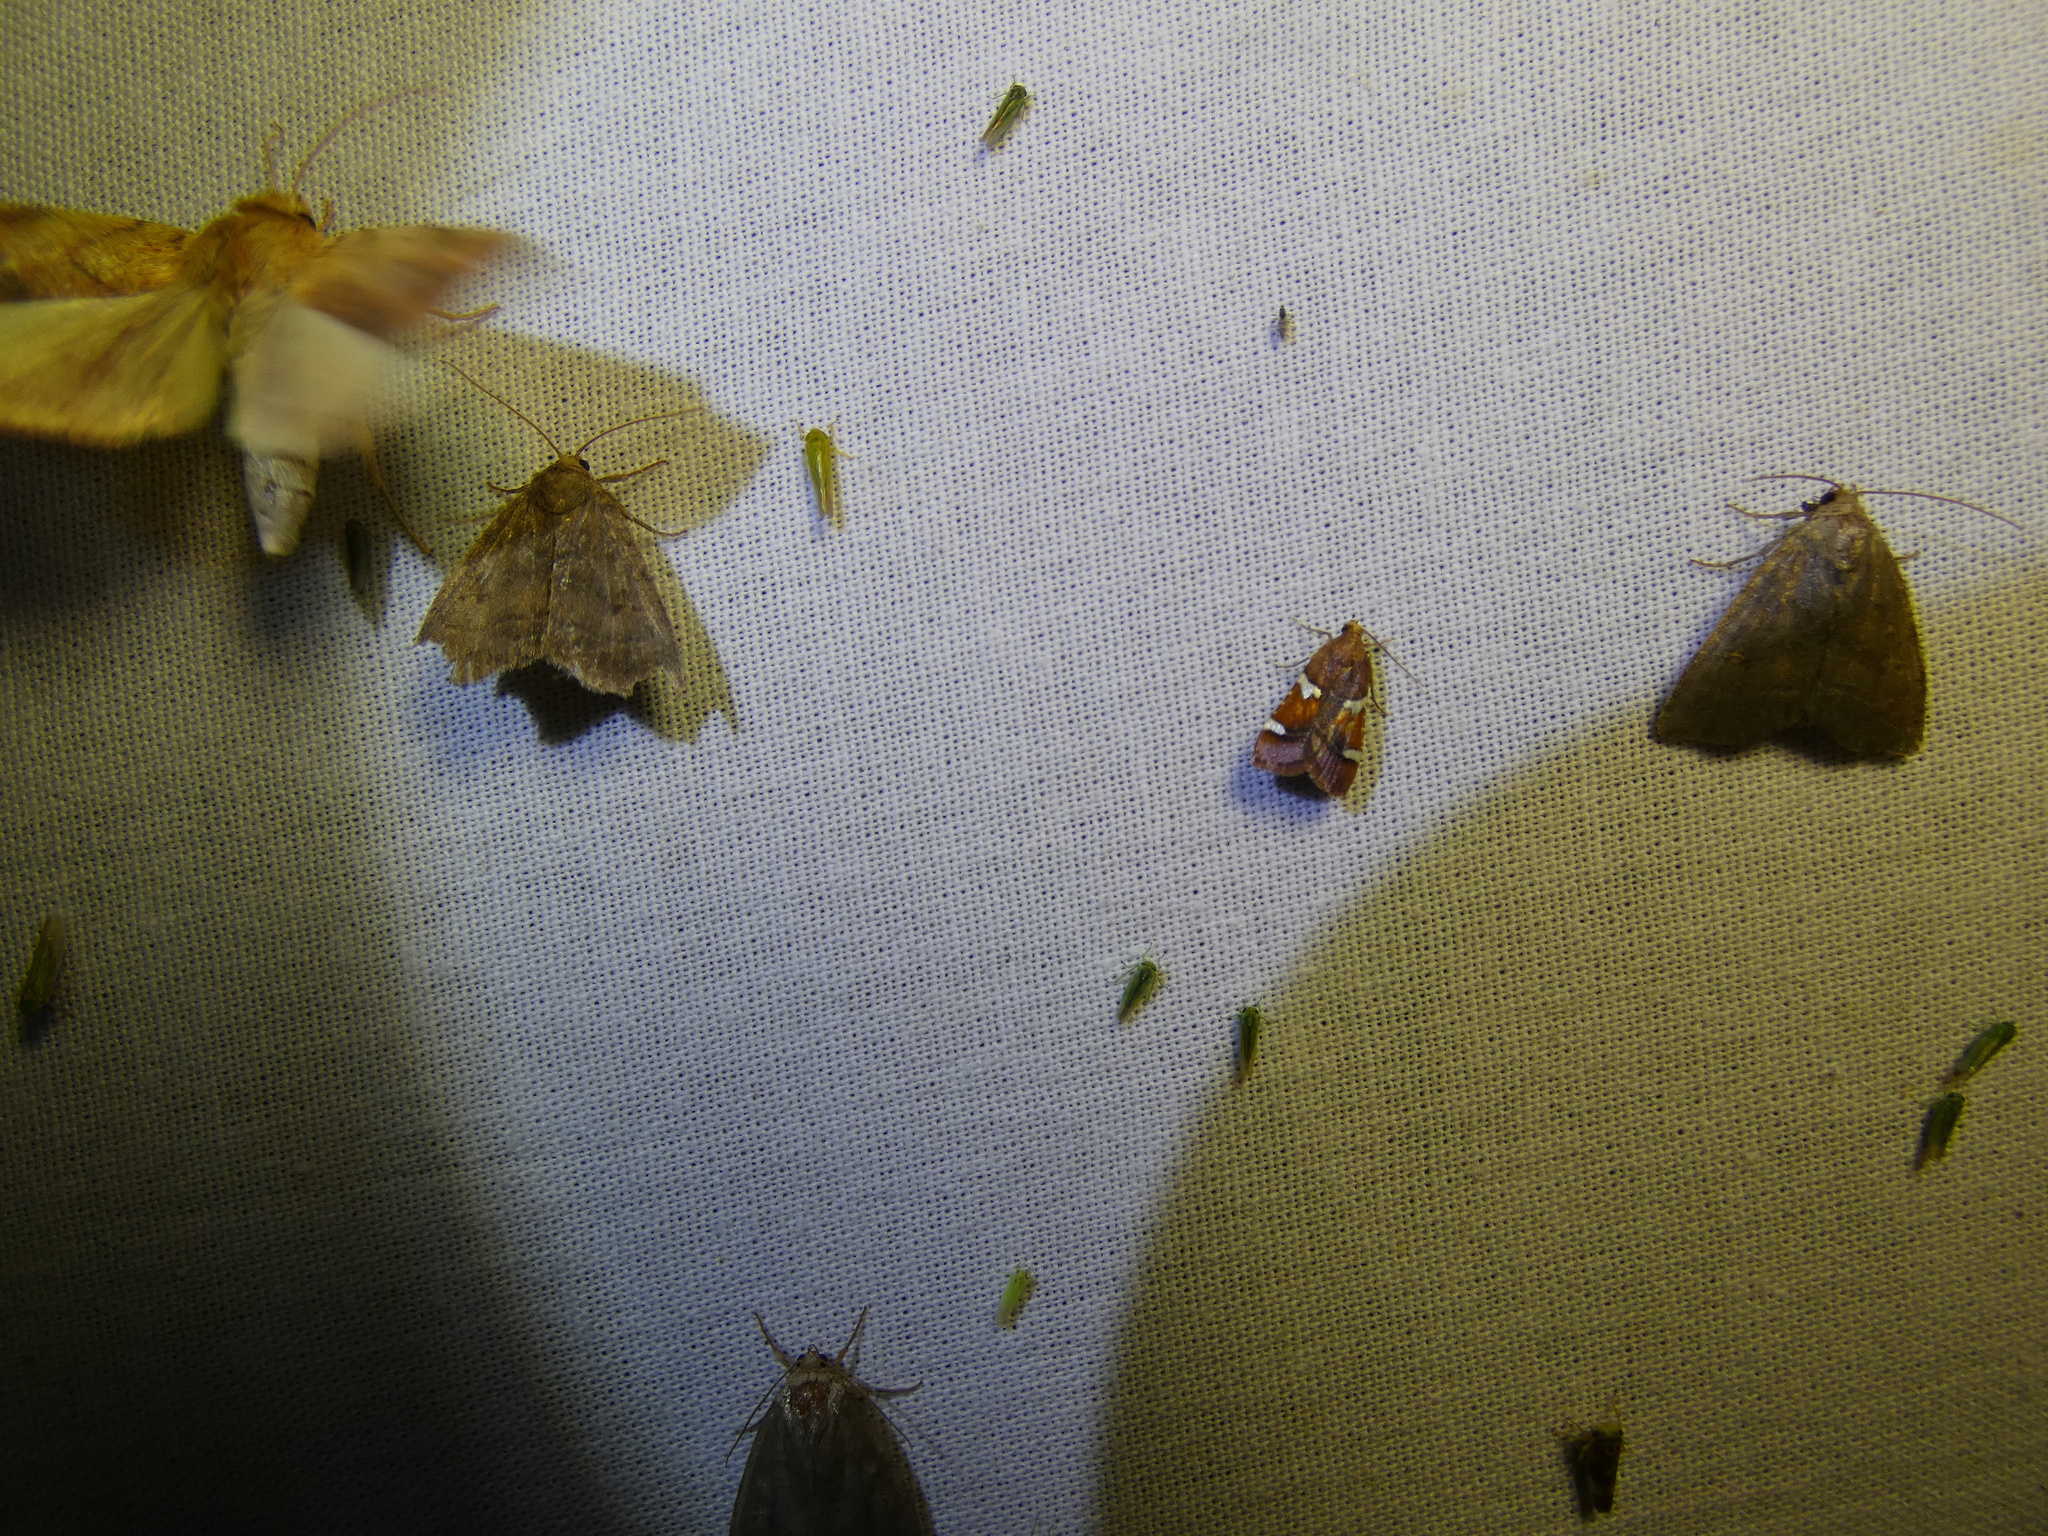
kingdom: Animalia
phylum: Arthropoda
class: Insecta
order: Lepidoptera
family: Pyralidae
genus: Pyralis
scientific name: Pyralis cardinalis
